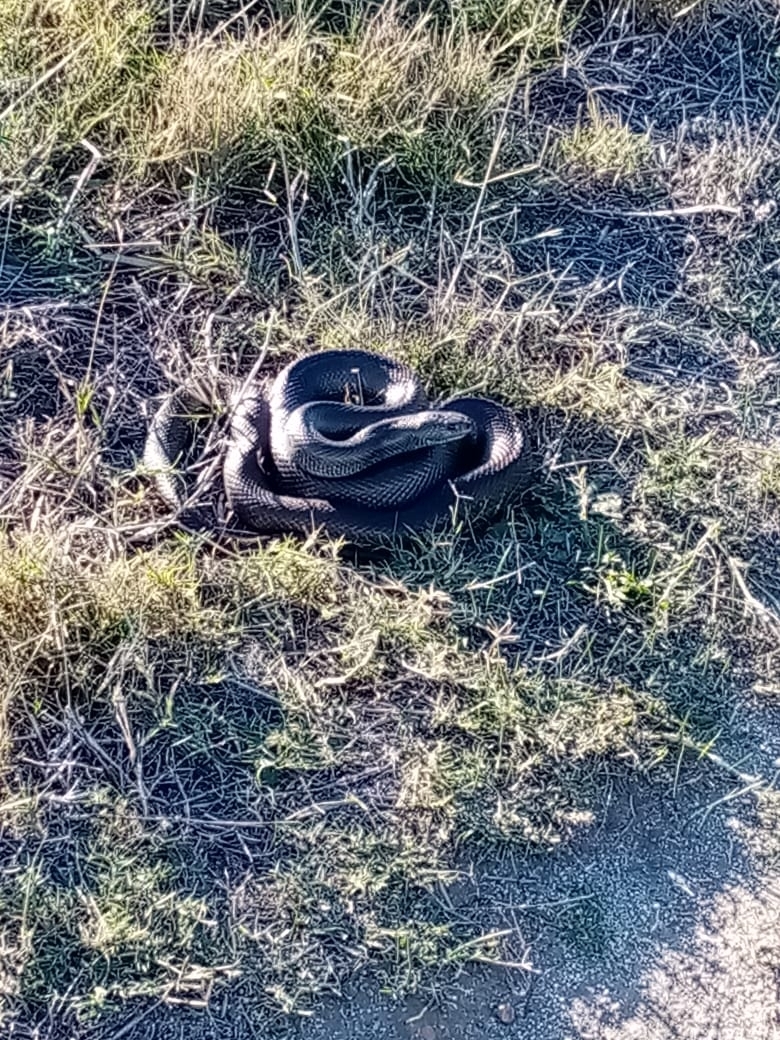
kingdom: Animalia
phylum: Chordata
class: Squamata
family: Pseudaspididae
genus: Pseudaspis
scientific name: Pseudaspis cana
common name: Mole snake
